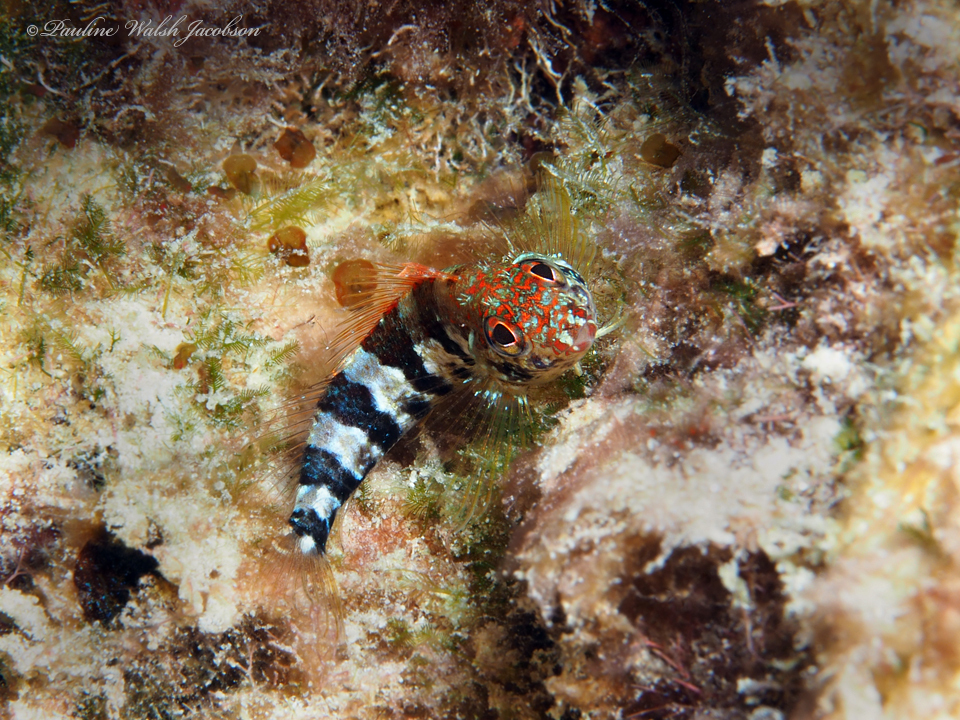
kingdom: Animalia
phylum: Chordata
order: Perciformes
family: Labrisomidae
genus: Malacoctenus
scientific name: Malacoctenus triangulatus
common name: Saddled blenny
